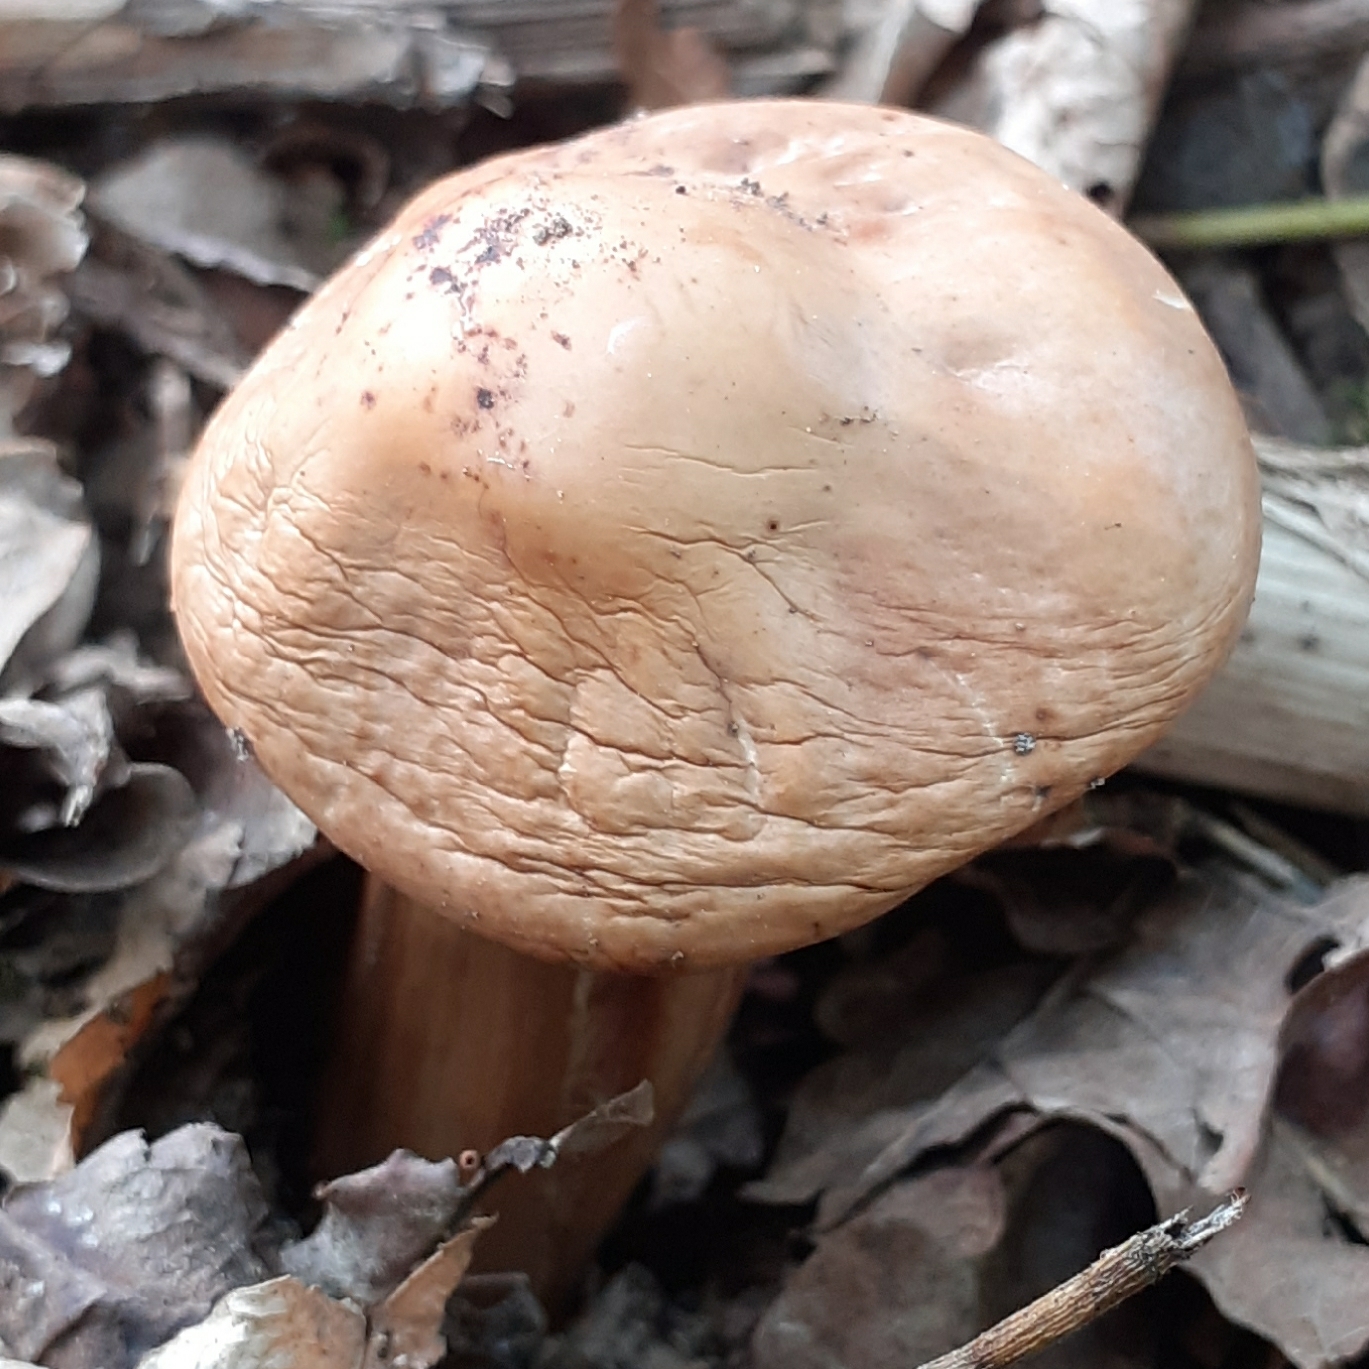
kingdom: Fungi
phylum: Basidiomycota
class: Agaricomycetes
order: Agaricales
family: Omphalotaceae
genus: Gymnopus
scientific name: Gymnopus fusipes
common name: Spindle shank
